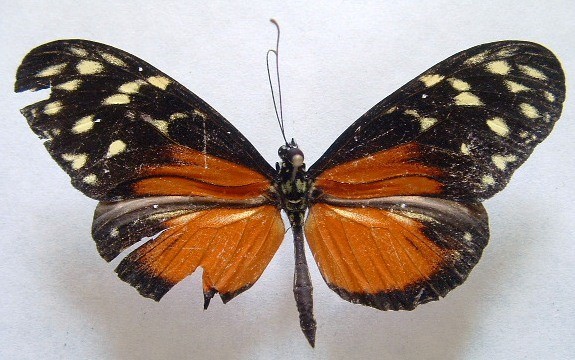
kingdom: Animalia
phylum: Arthropoda
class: Insecta
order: Lepidoptera
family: Nymphalidae
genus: Heliconius
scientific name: Heliconius hecale
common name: Tiger longwing
